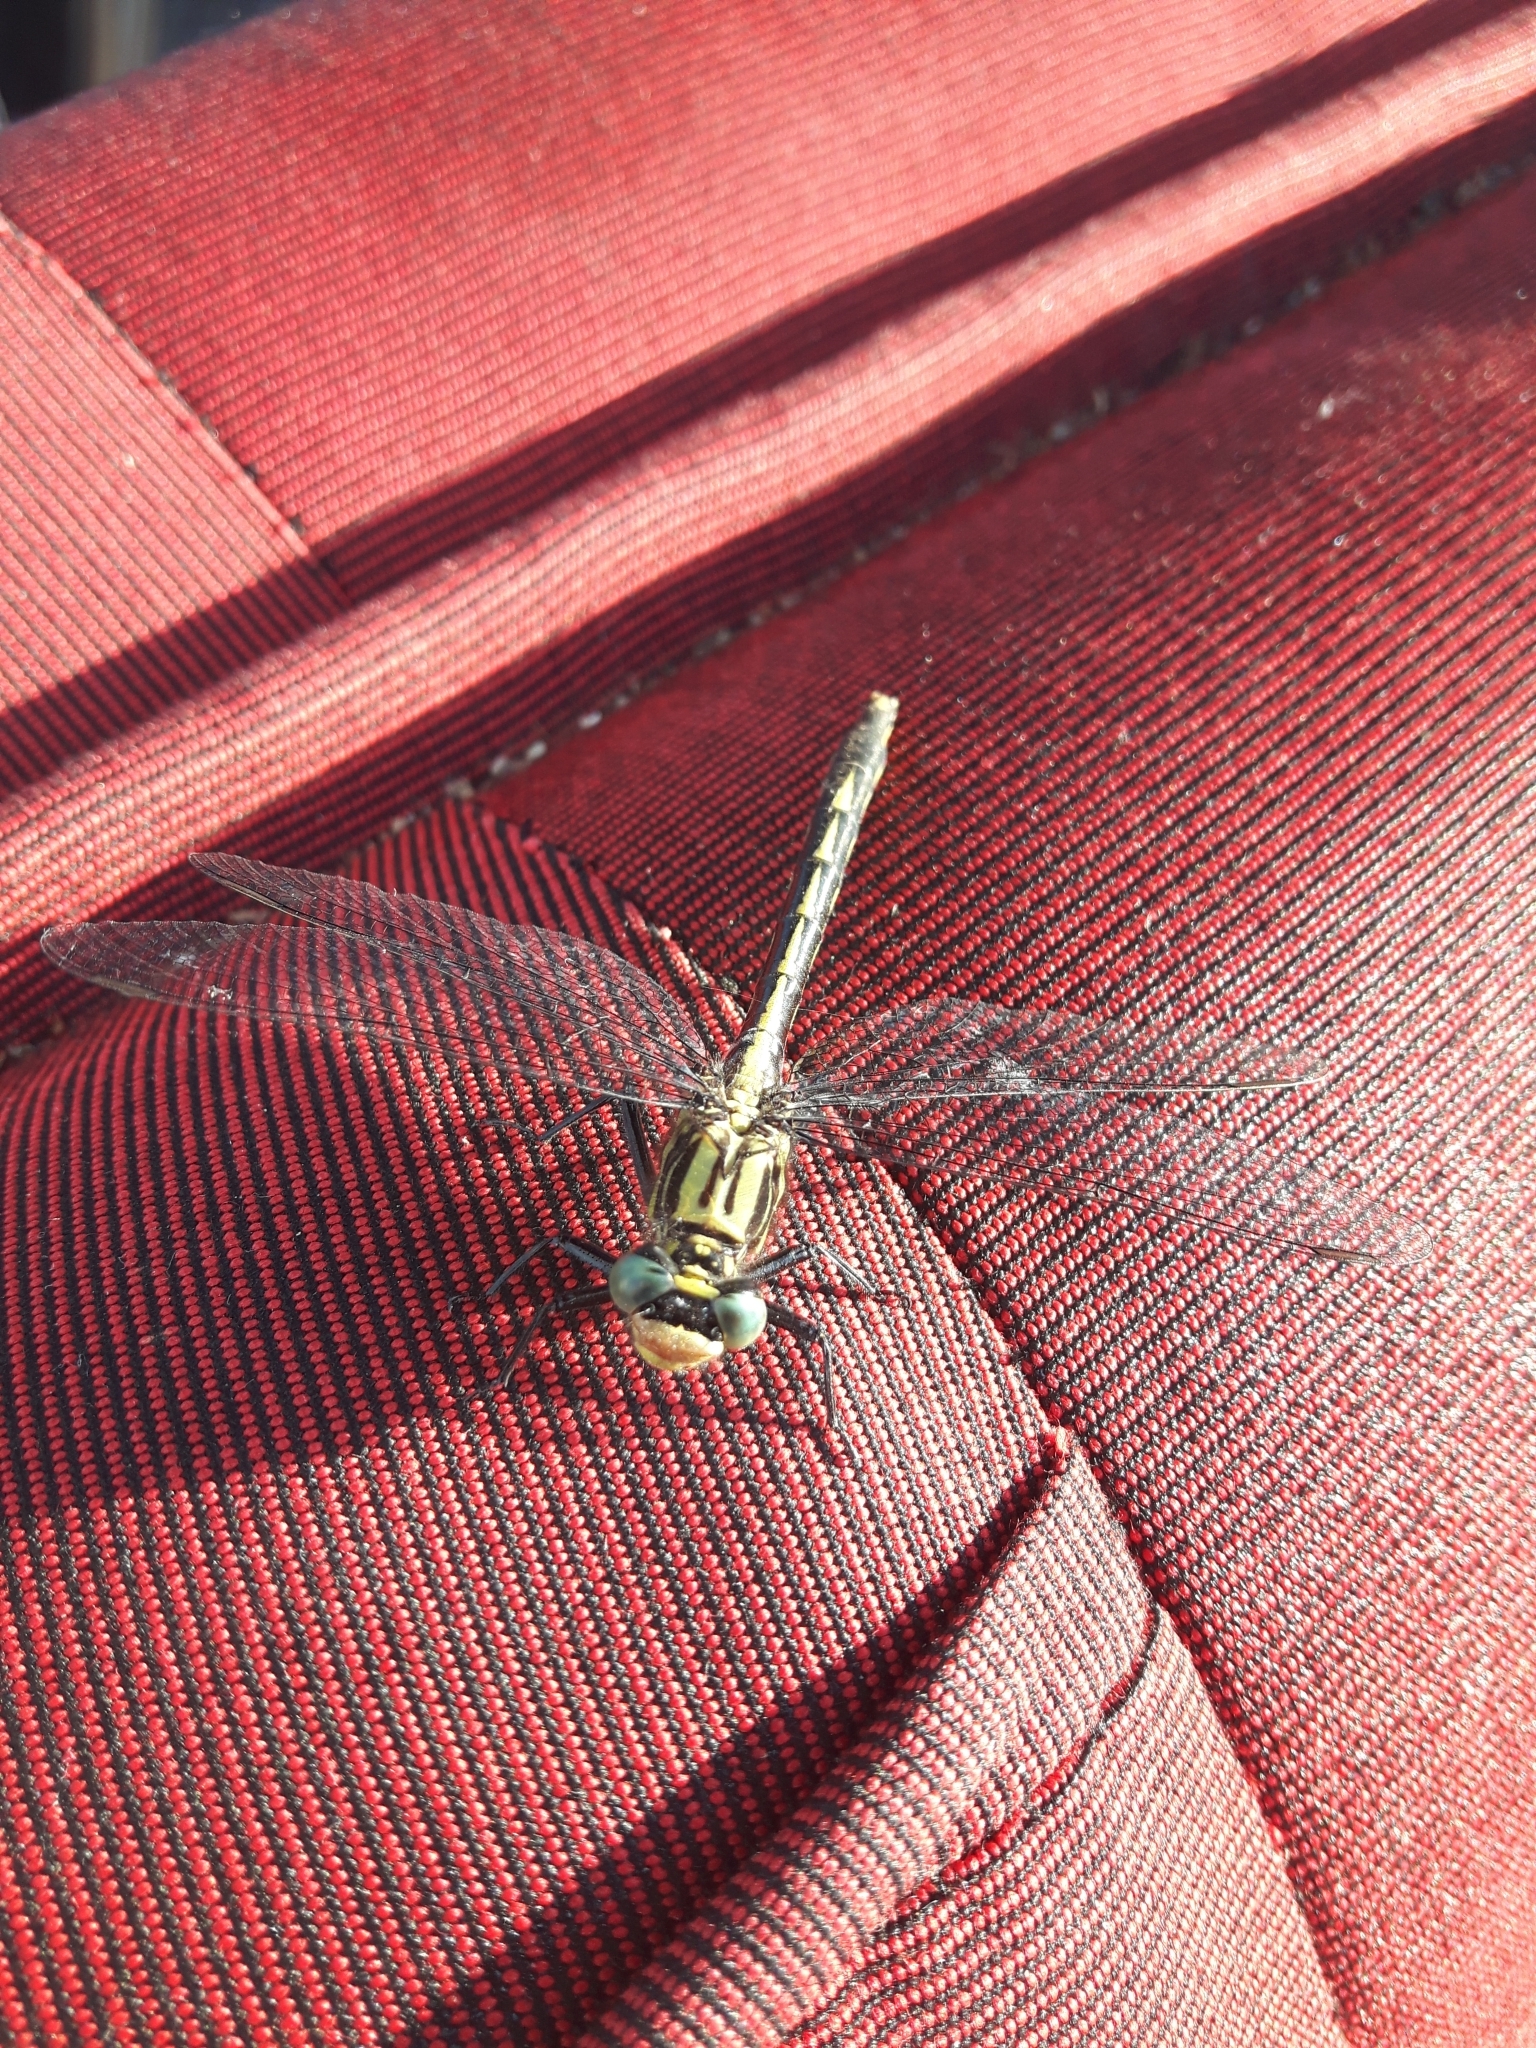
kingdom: Animalia
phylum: Arthropoda
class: Insecta
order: Odonata
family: Gomphidae
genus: Arigomphus
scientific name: Arigomphus furcifer
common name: Lilypad clubtail
